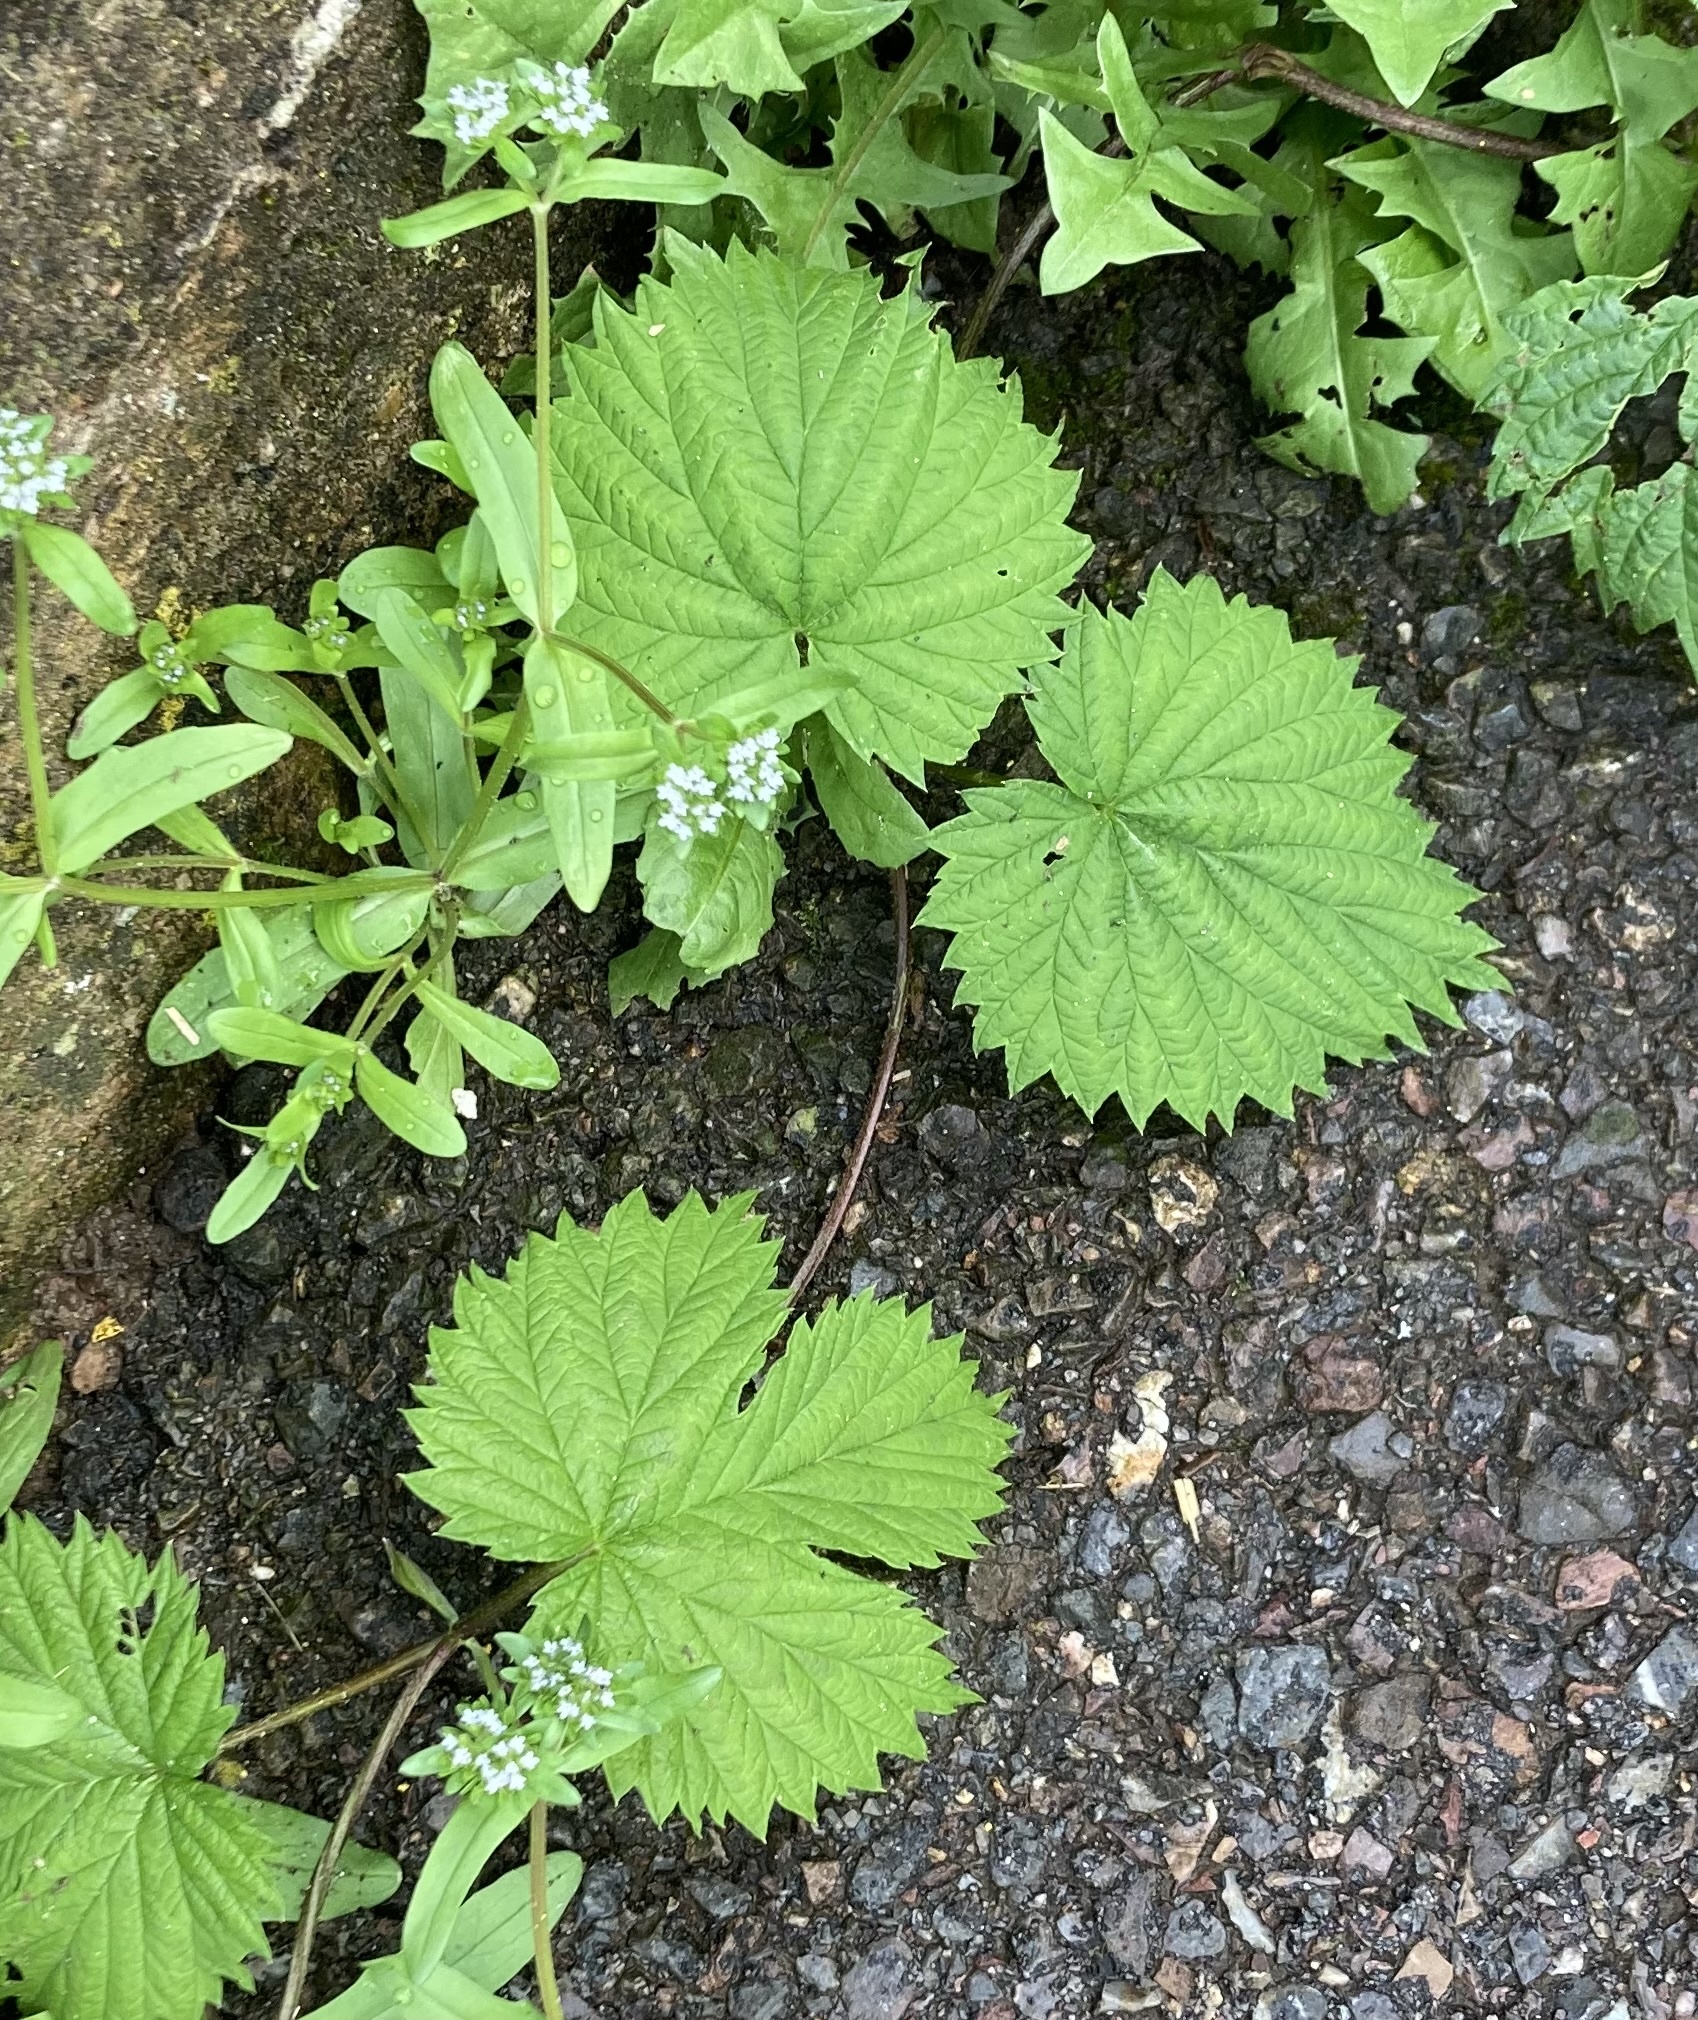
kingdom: Plantae
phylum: Tracheophyta
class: Magnoliopsida
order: Rosales
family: Cannabaceae
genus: Humulus
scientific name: Humulus lupulus
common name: Hop
